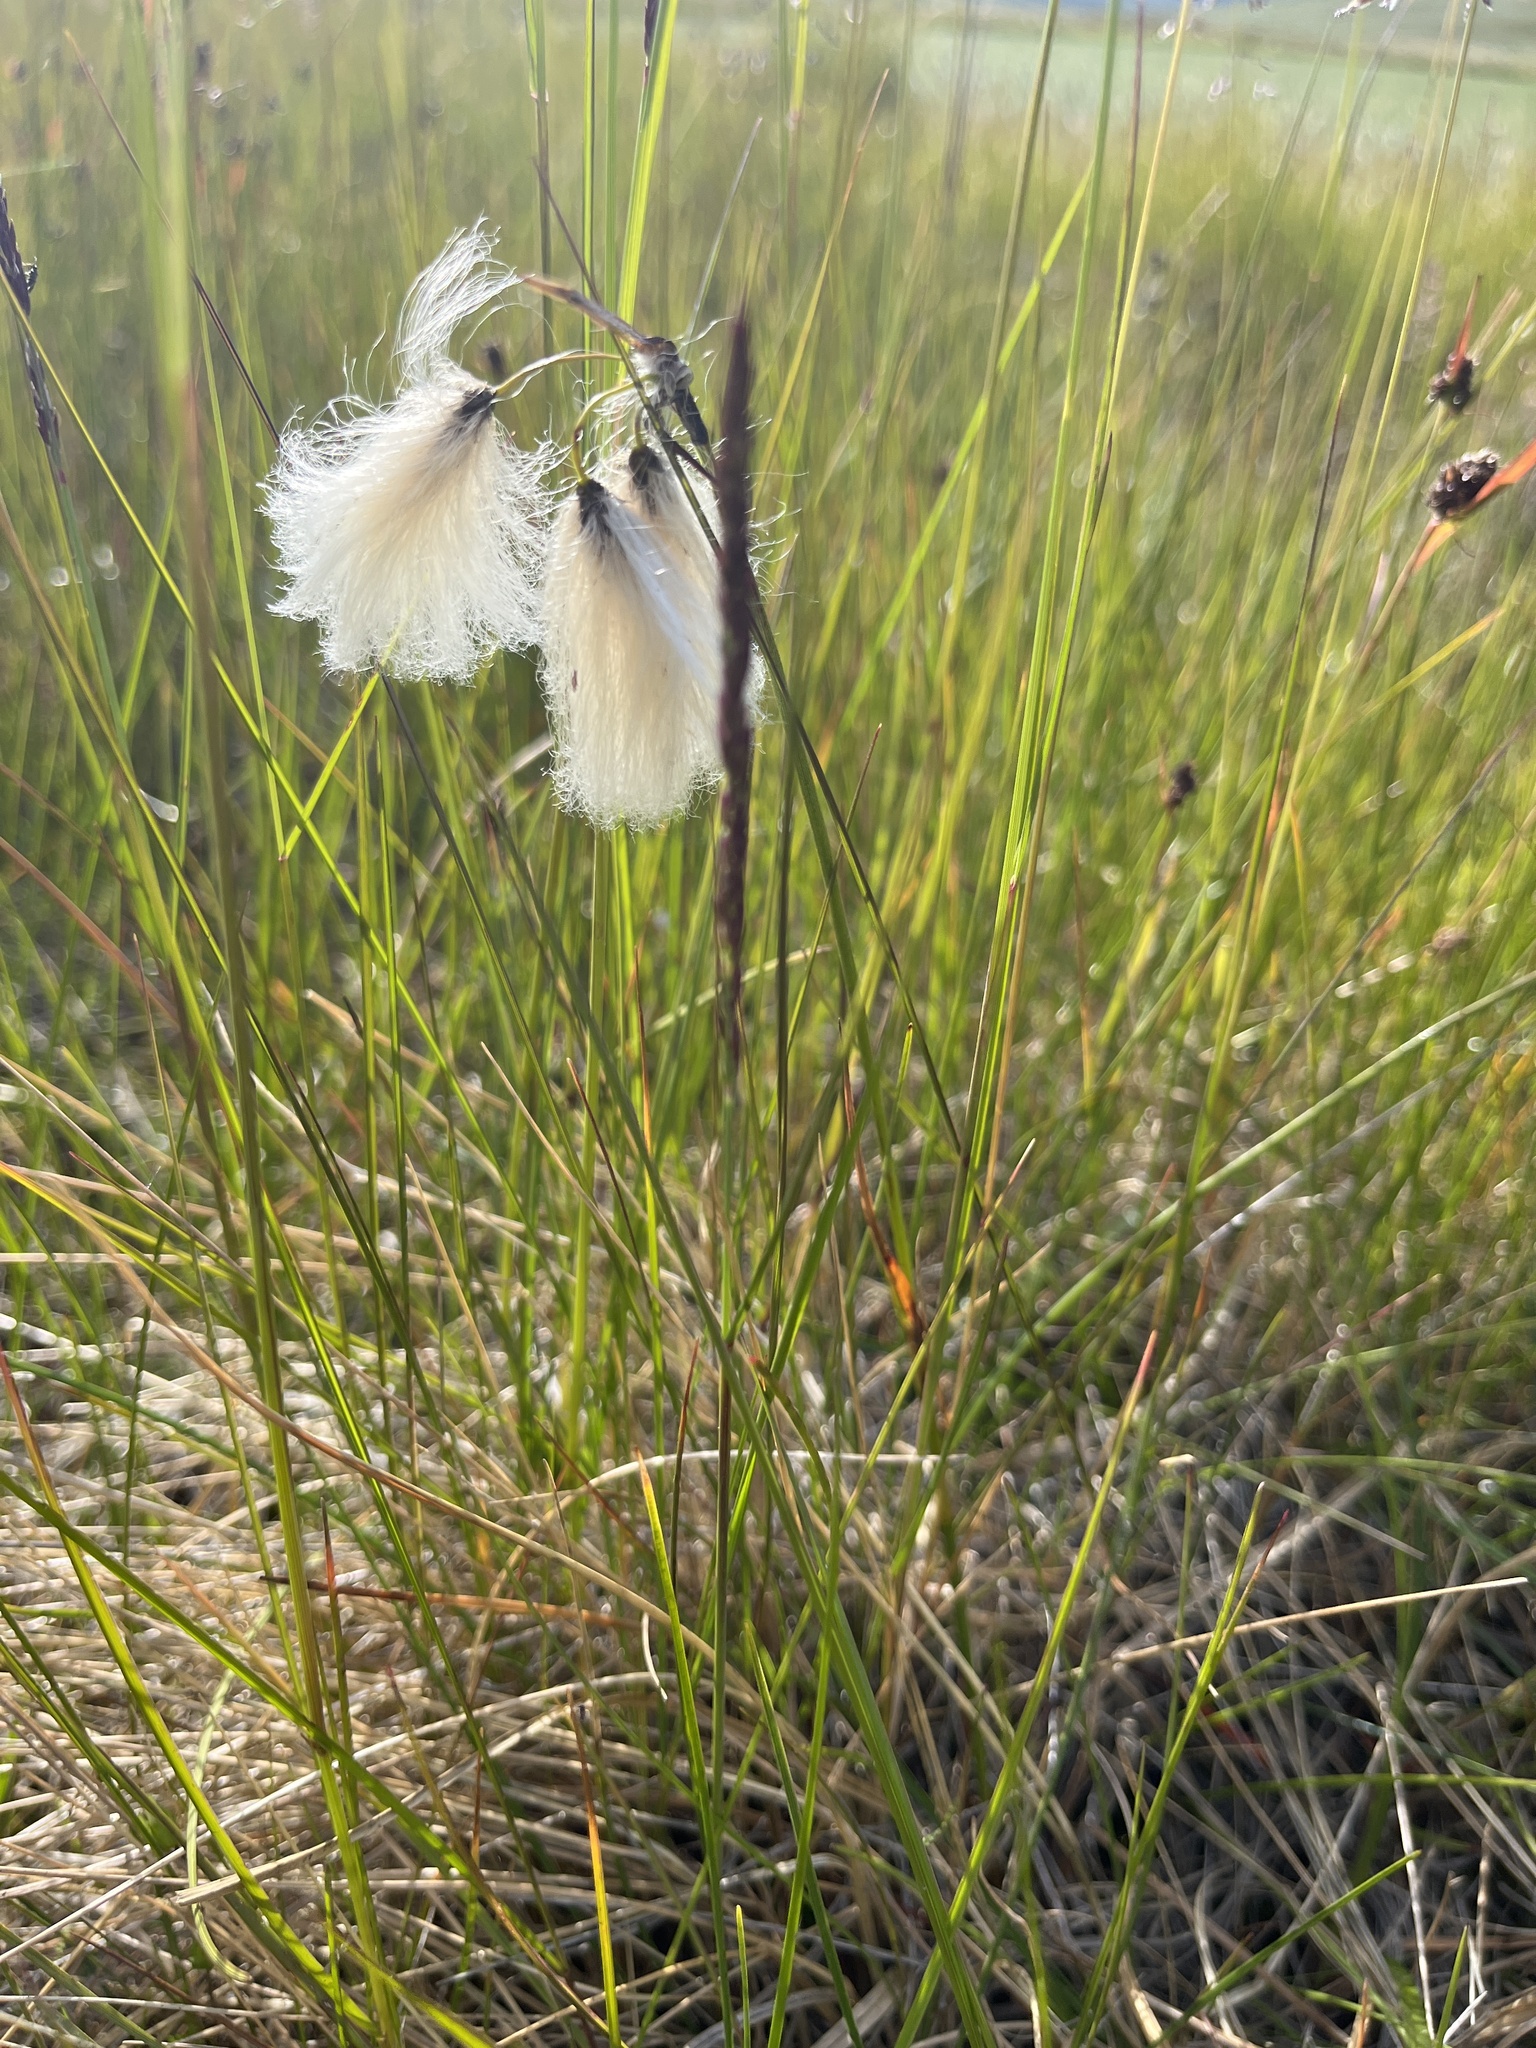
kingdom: Plantae
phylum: Tracheophyta
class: Liliopsida
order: Poales
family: Cyperaceae
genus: Eriophorum
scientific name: Eriophorum angustifolium
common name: Common cottongrass
